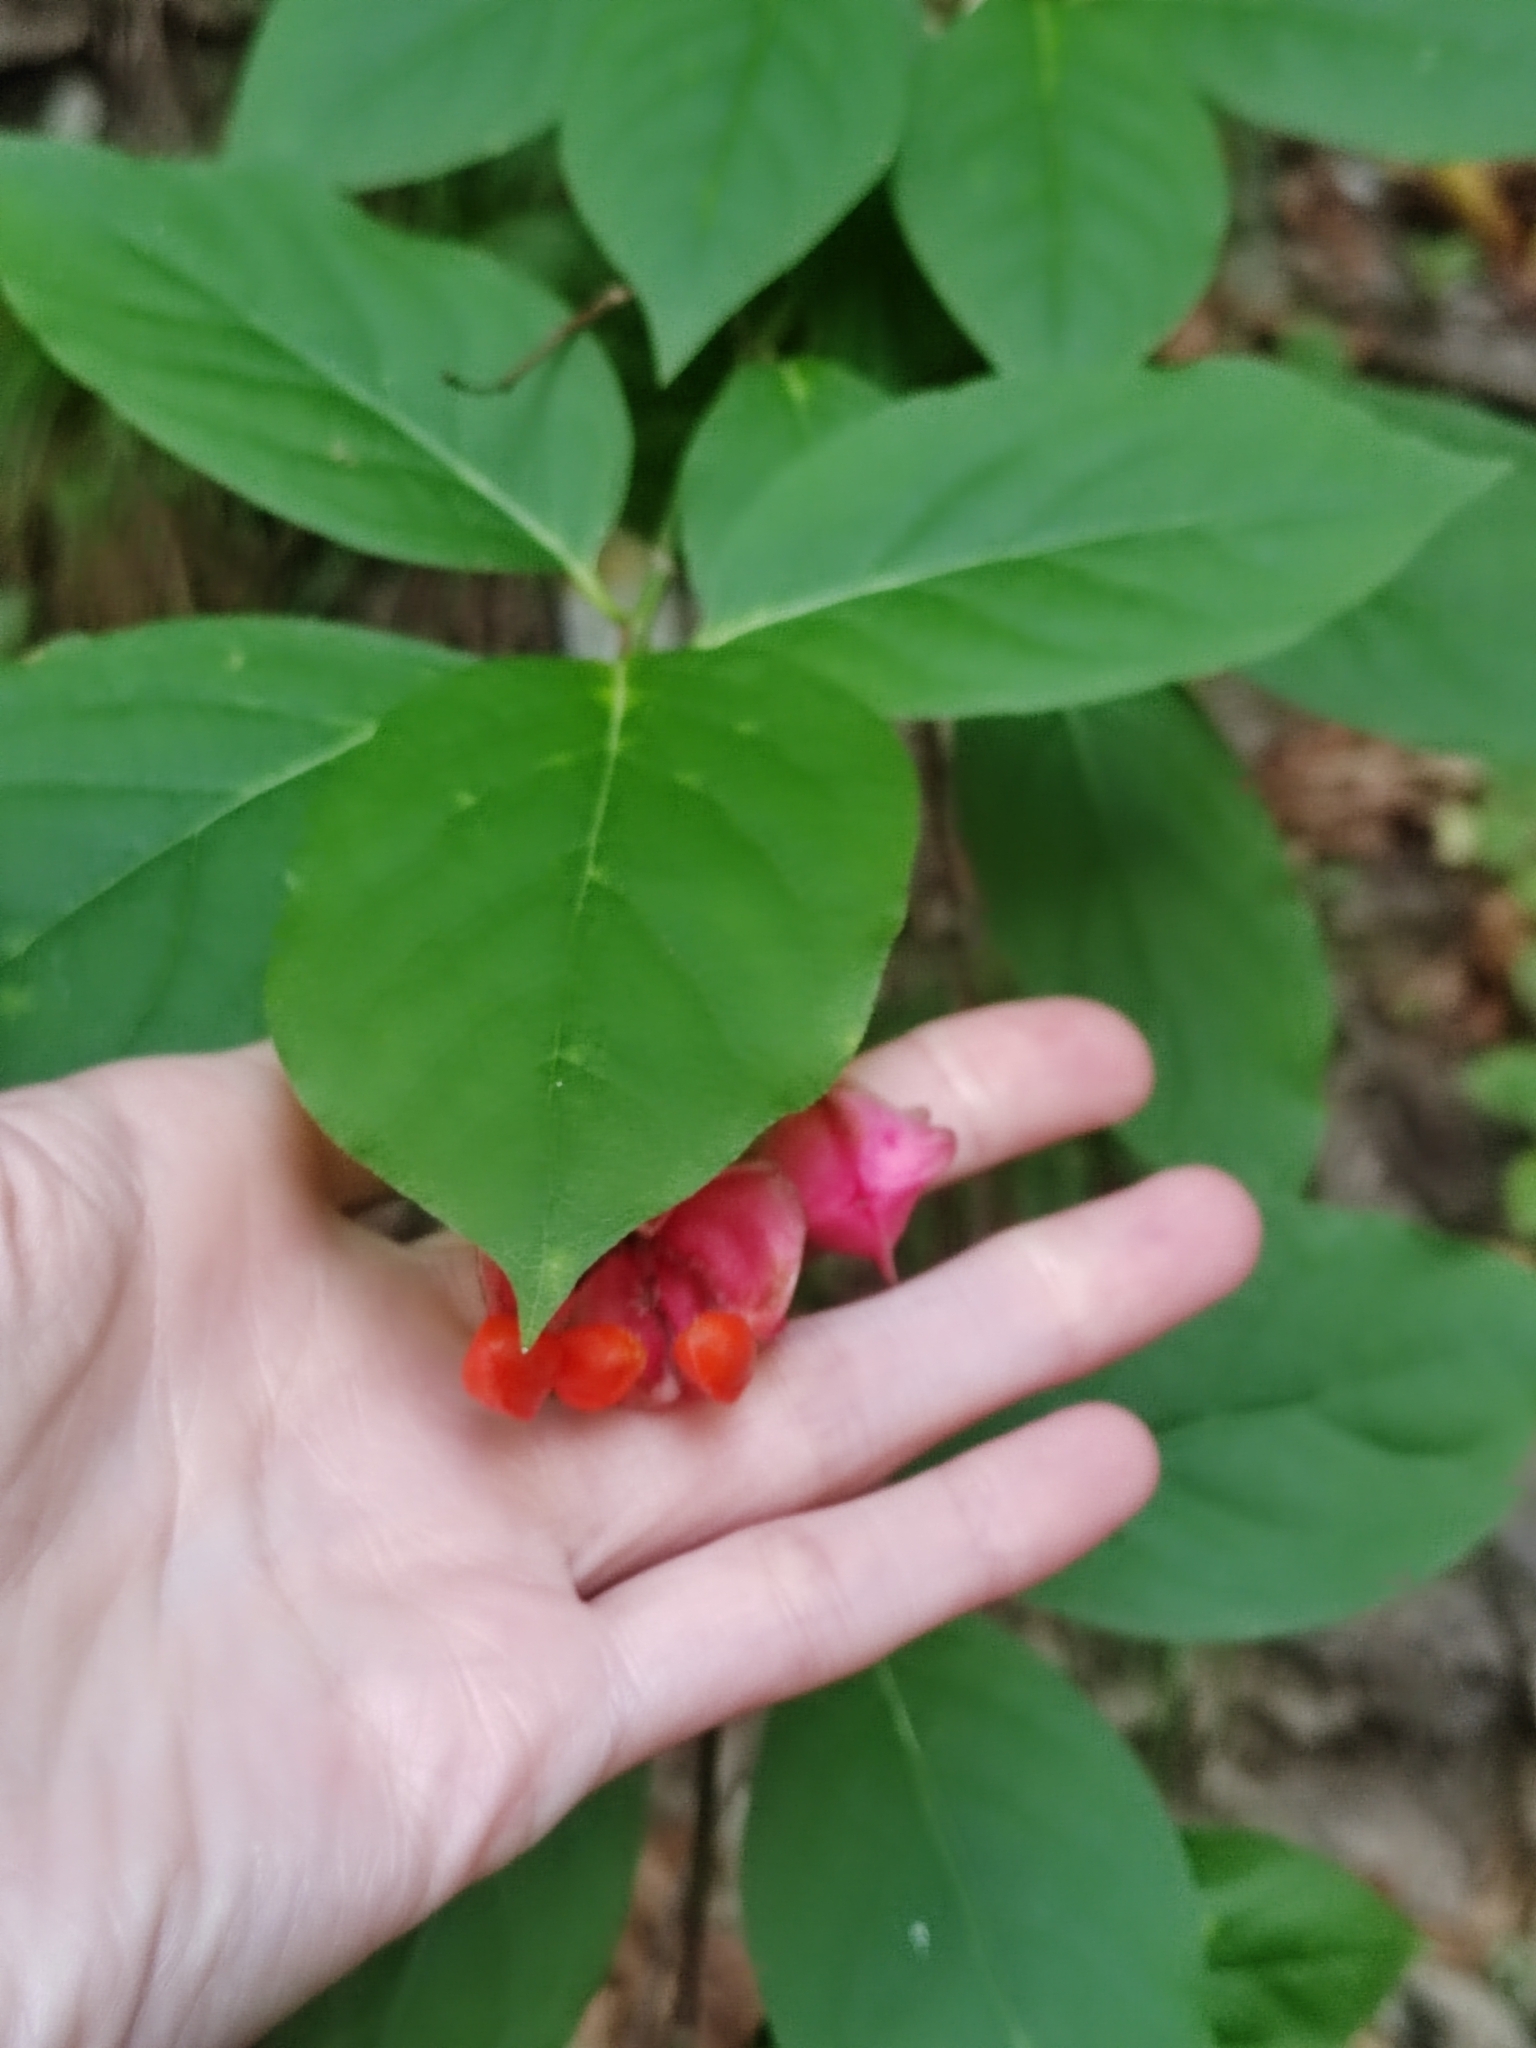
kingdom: Plantae
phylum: Tracheophyta
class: Magnoliopsida
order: Celastrales
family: Celastraceae
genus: Euonymus
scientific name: Euonymus latifolius
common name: Large-leaved spindle
